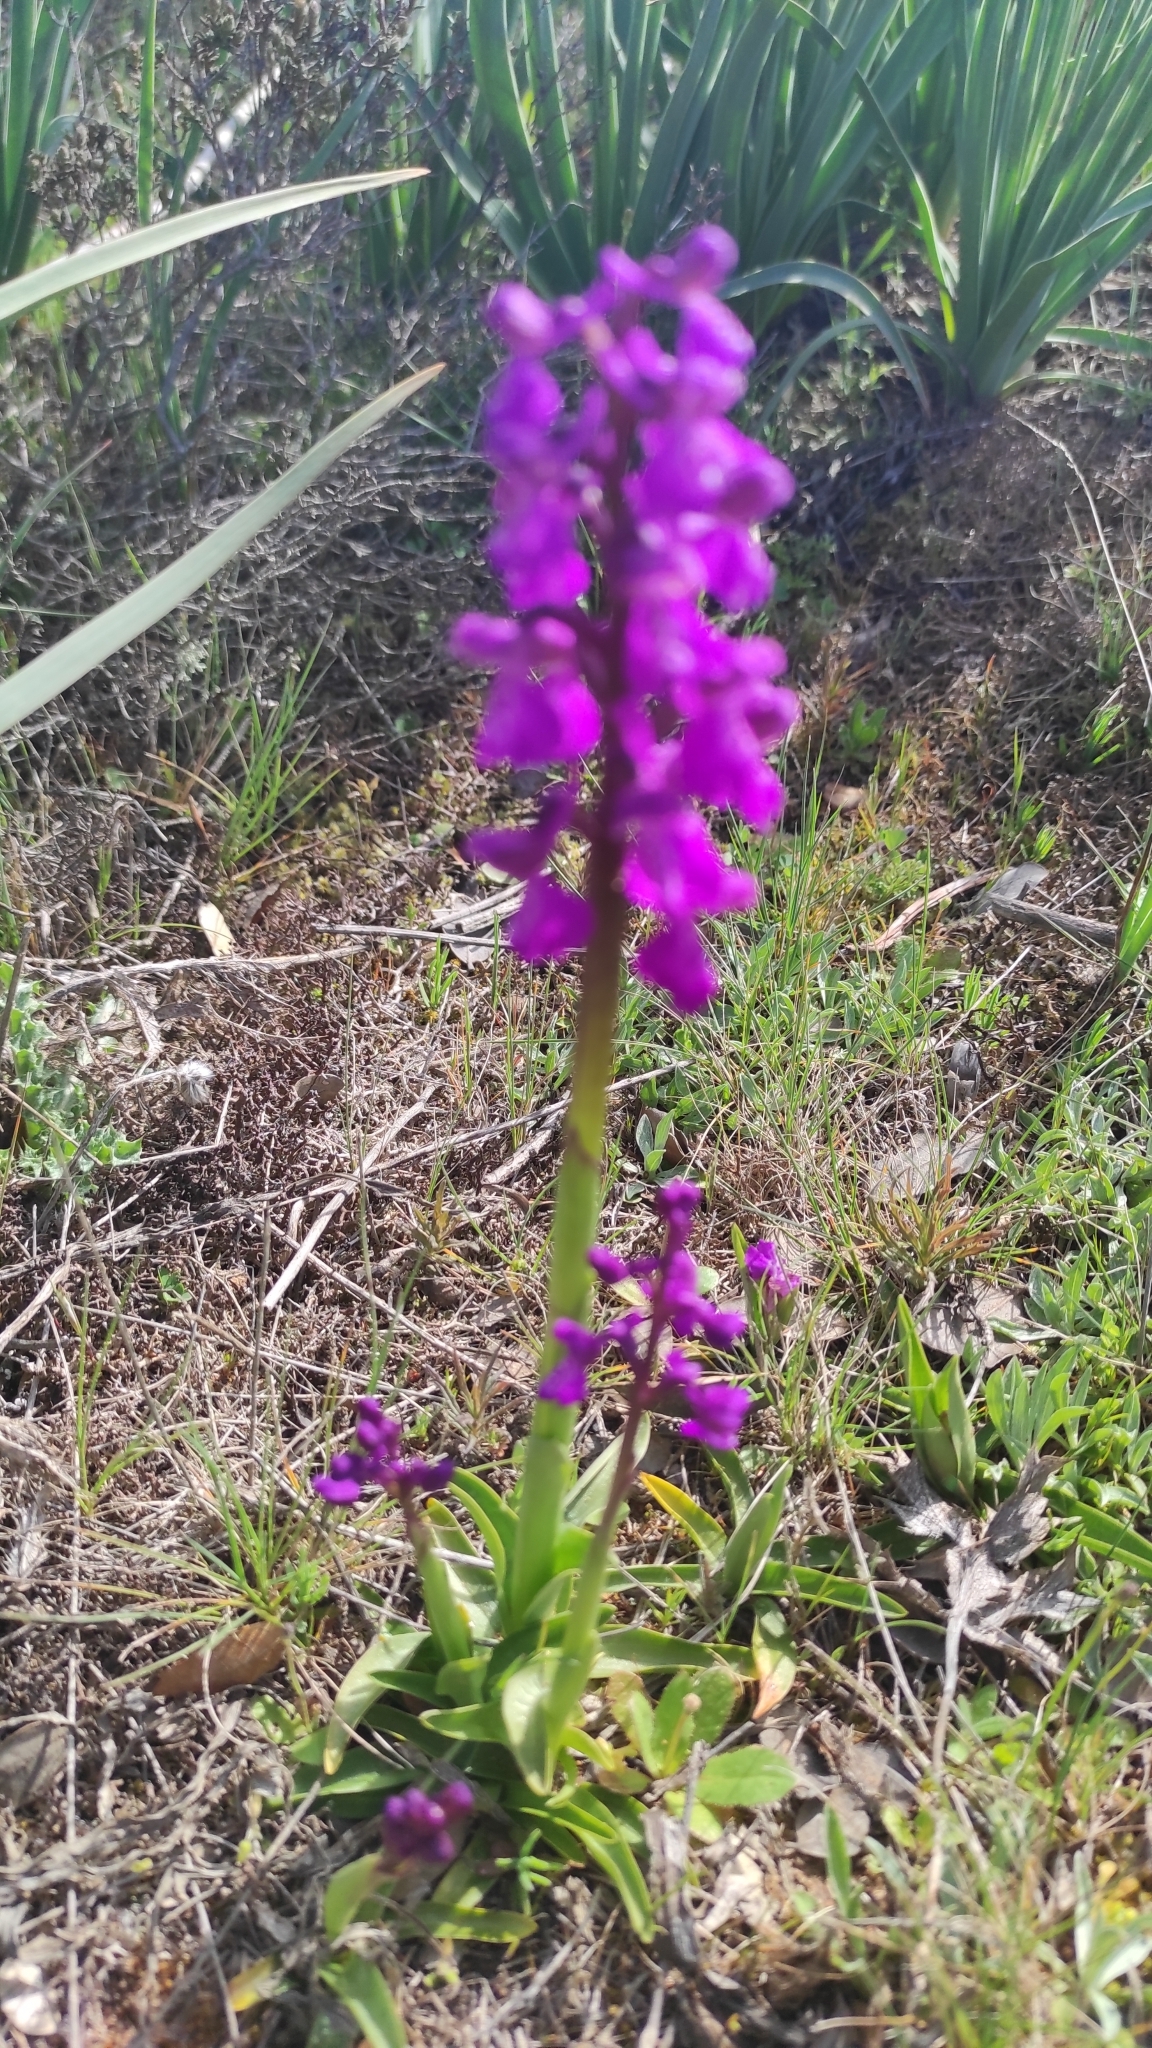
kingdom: Plantae
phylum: Tracheophyta
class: Liliopsida
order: Asparagales
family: Orchidaceae
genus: Anacamptis
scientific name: Anacamptis morio
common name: Green-winged orchid
